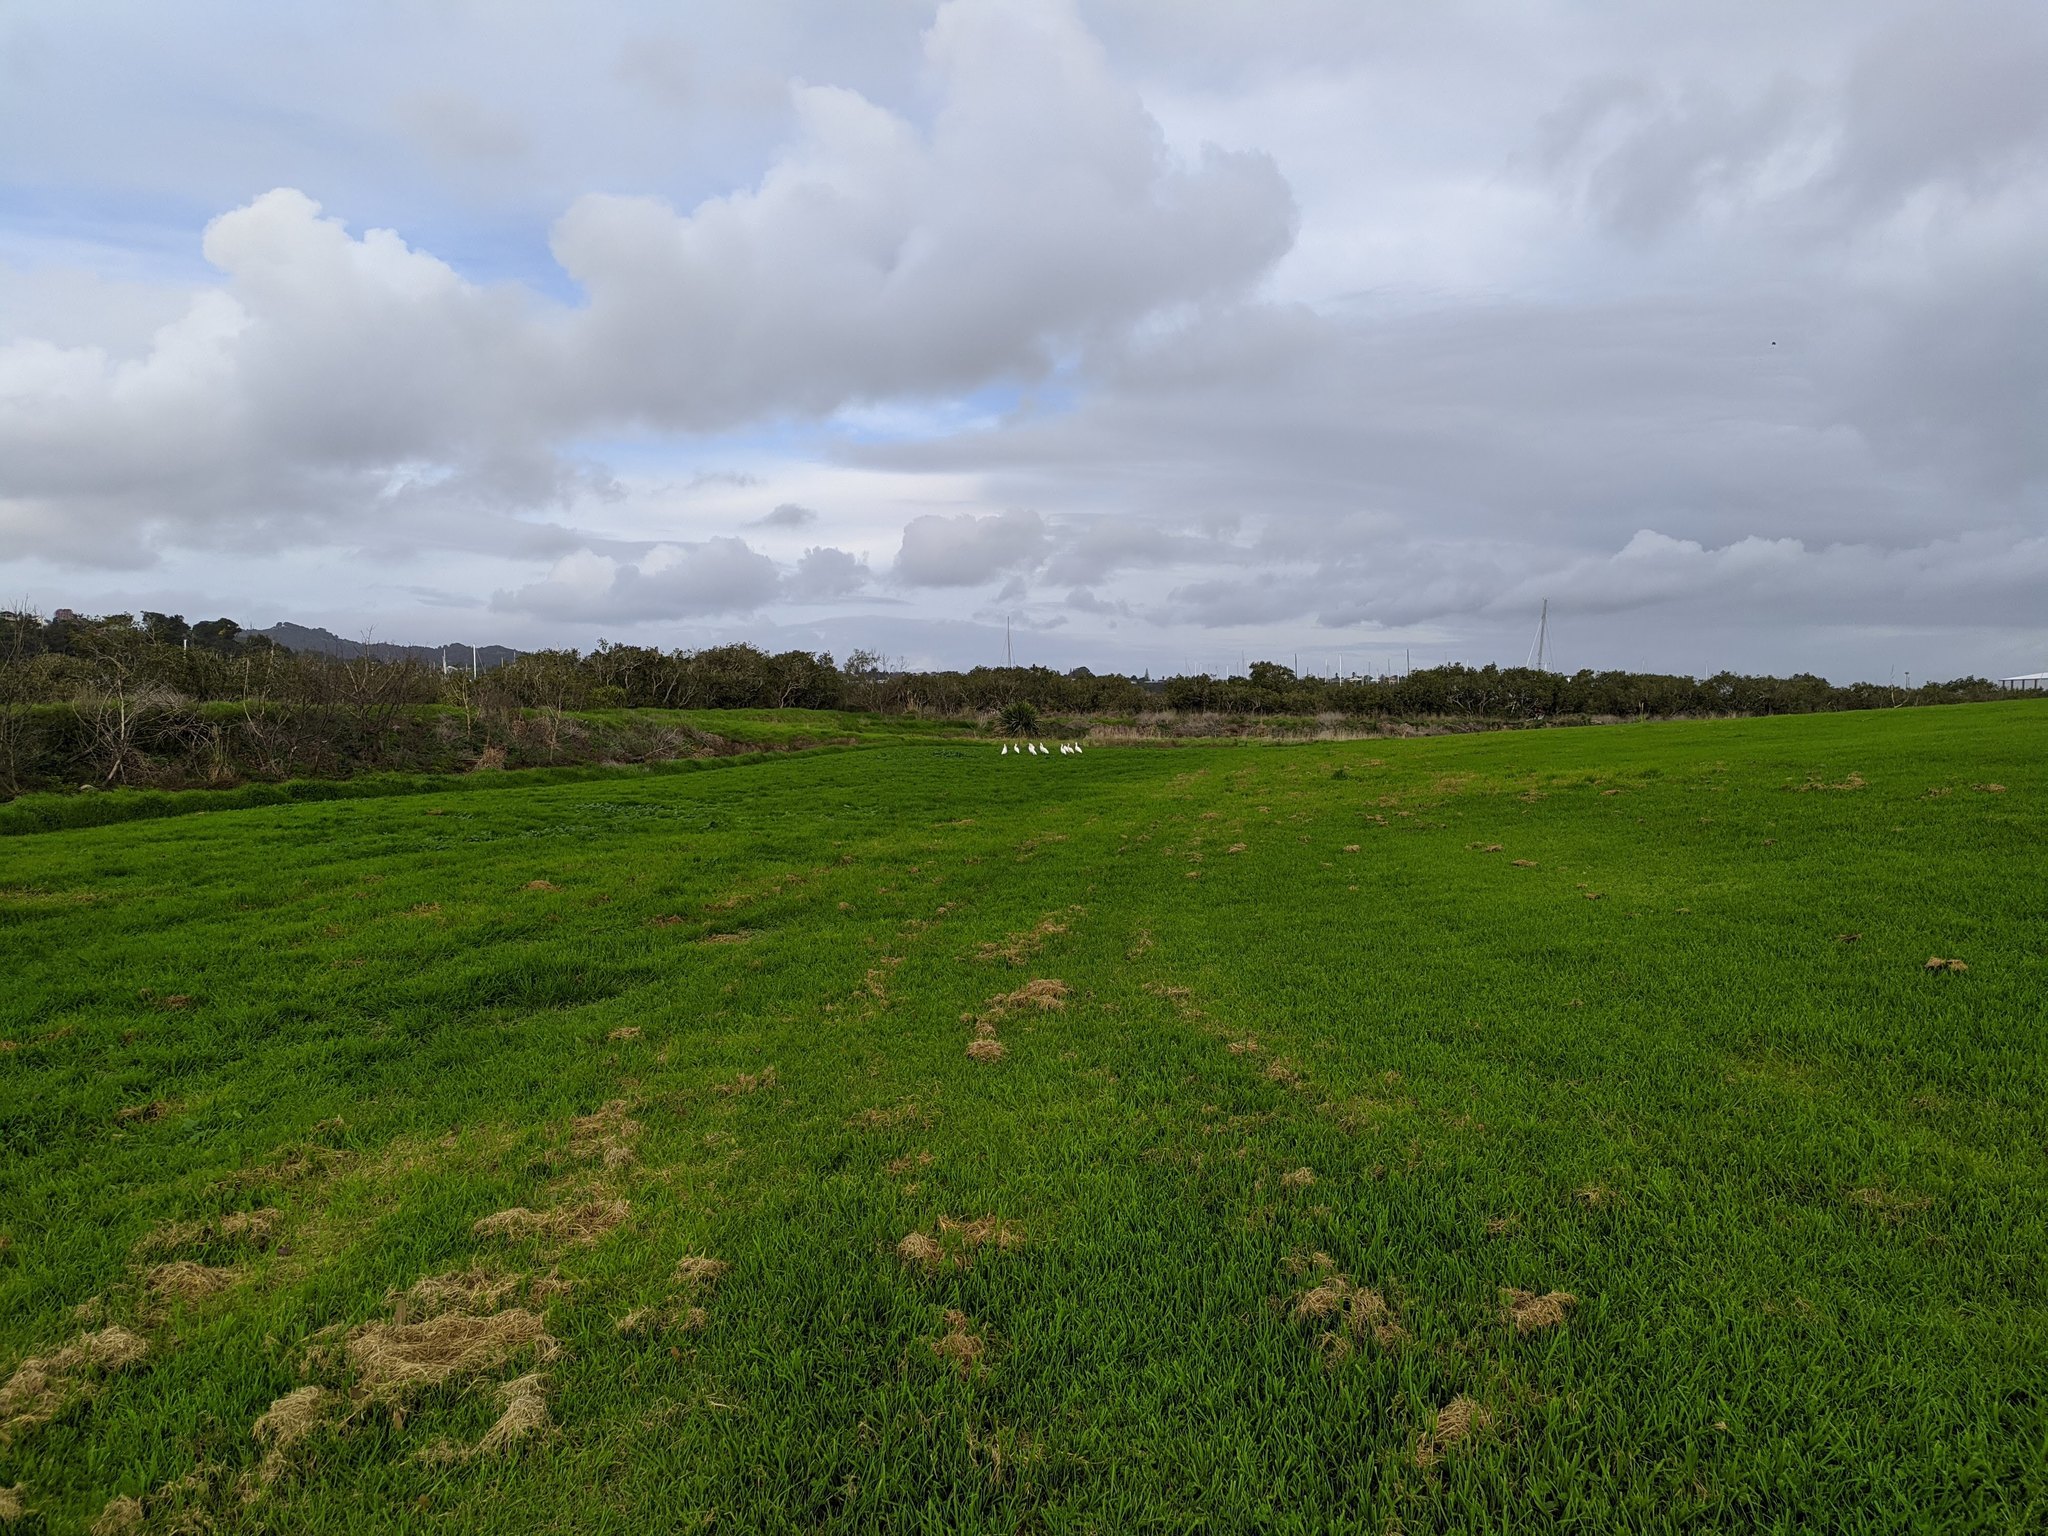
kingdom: Animalia
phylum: Chordata
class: Aves
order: Pelecaniformes
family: Threskiornithidae
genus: Platalea
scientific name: Platalea regia
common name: Royal spoonbill
